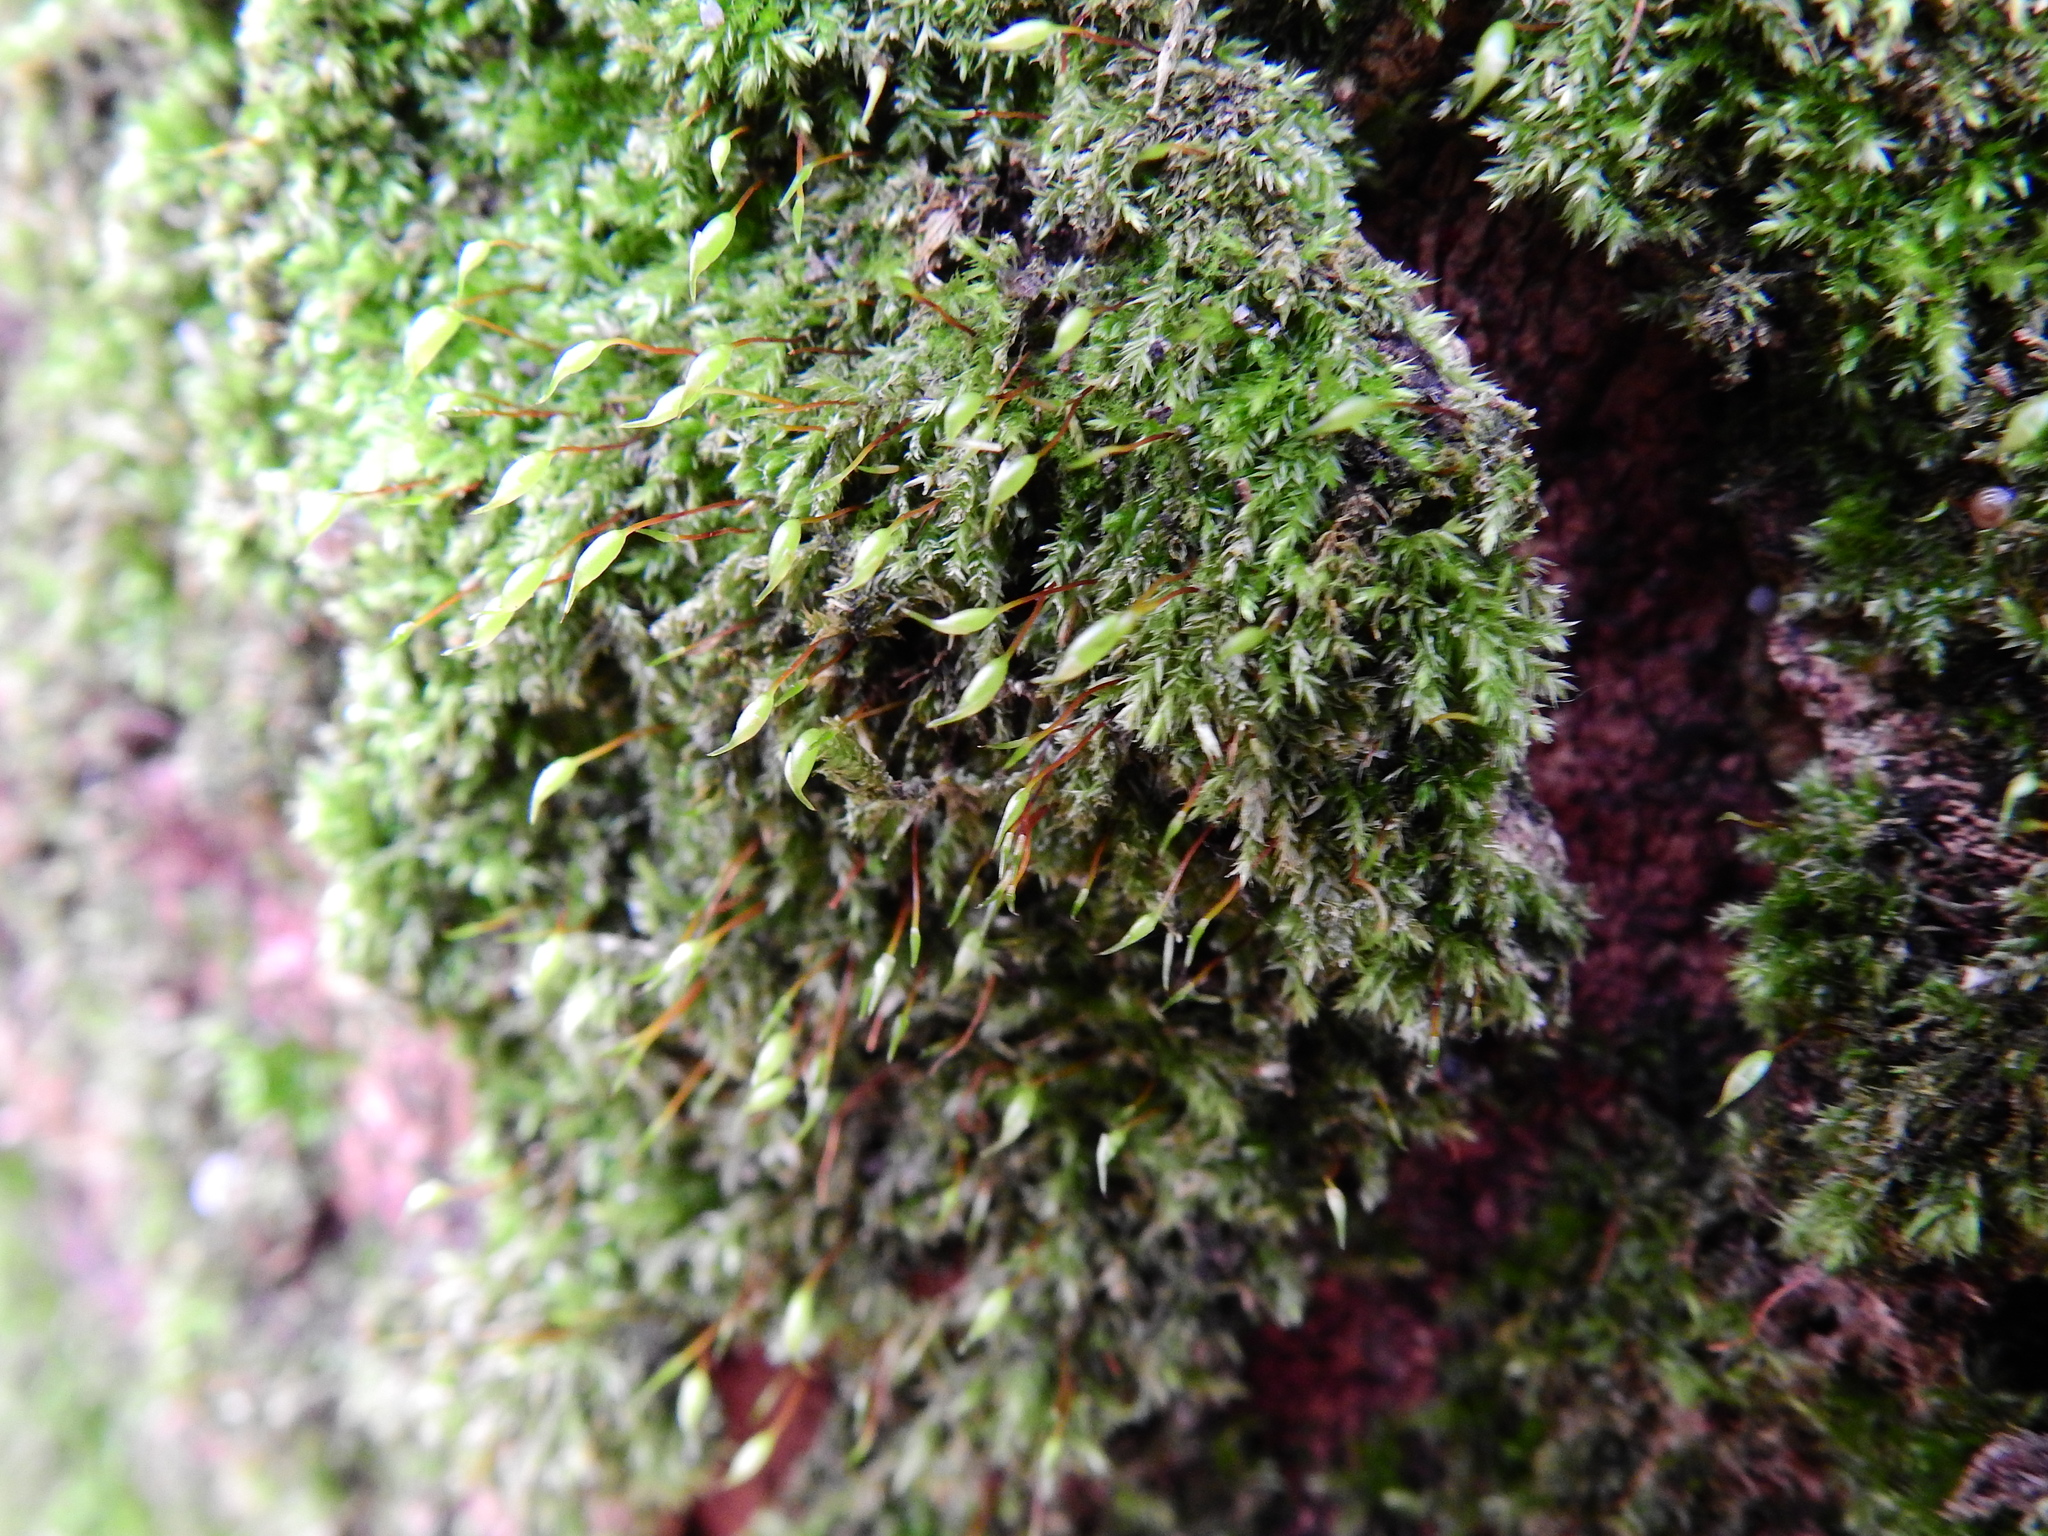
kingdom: Plantae
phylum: Bryophyta
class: Bryopsida
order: Hypnales
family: Brachytheciaceae
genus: Rhynchostegium
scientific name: Rhynchostegium confertum
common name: Clustered feather-moss
